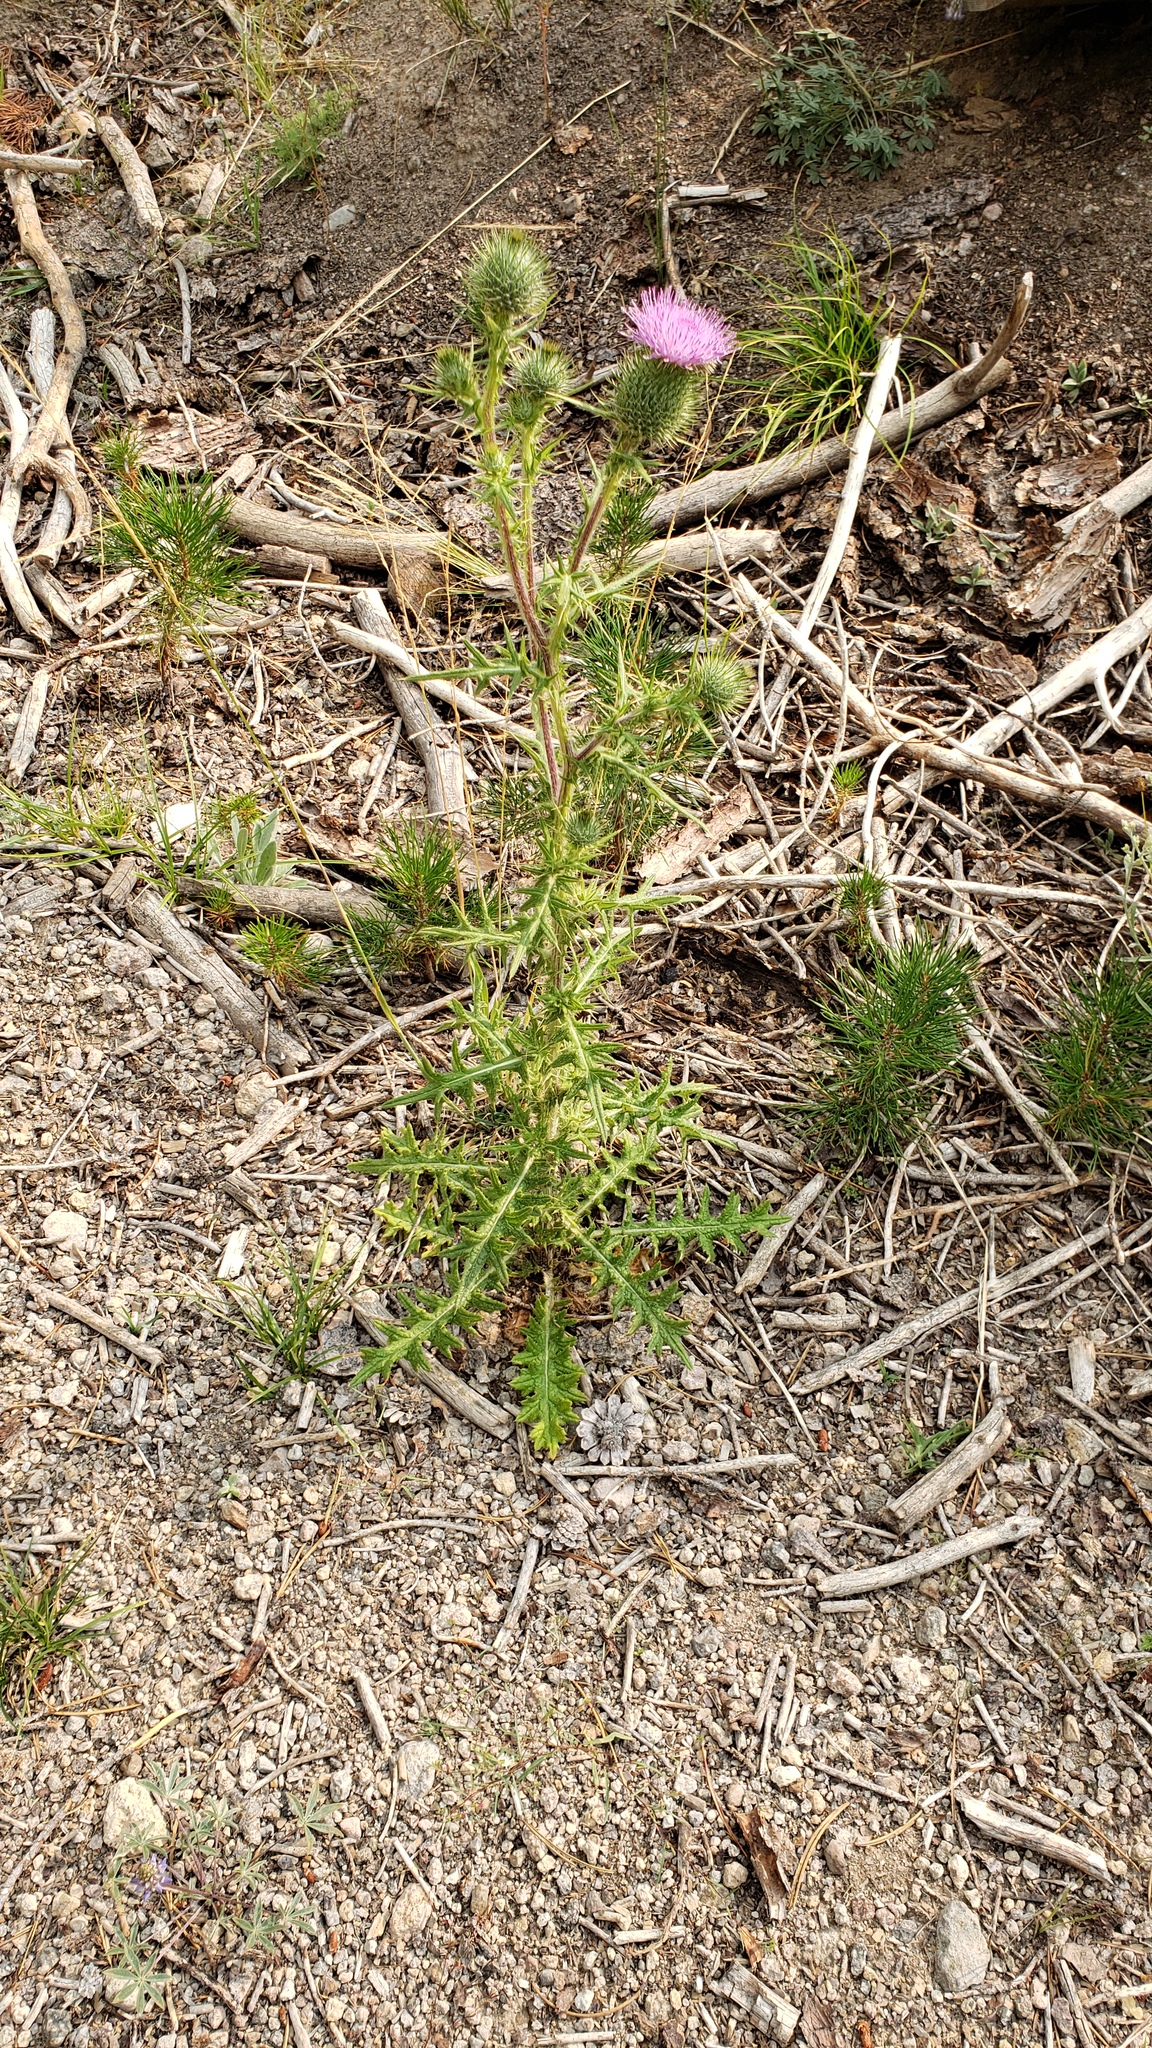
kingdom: Plantae
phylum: Tracheophyta
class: Magnoliopsida
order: Asterales
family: Asteraceae
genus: Cirsium
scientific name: Cirsium vulgare
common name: Bull thistle
